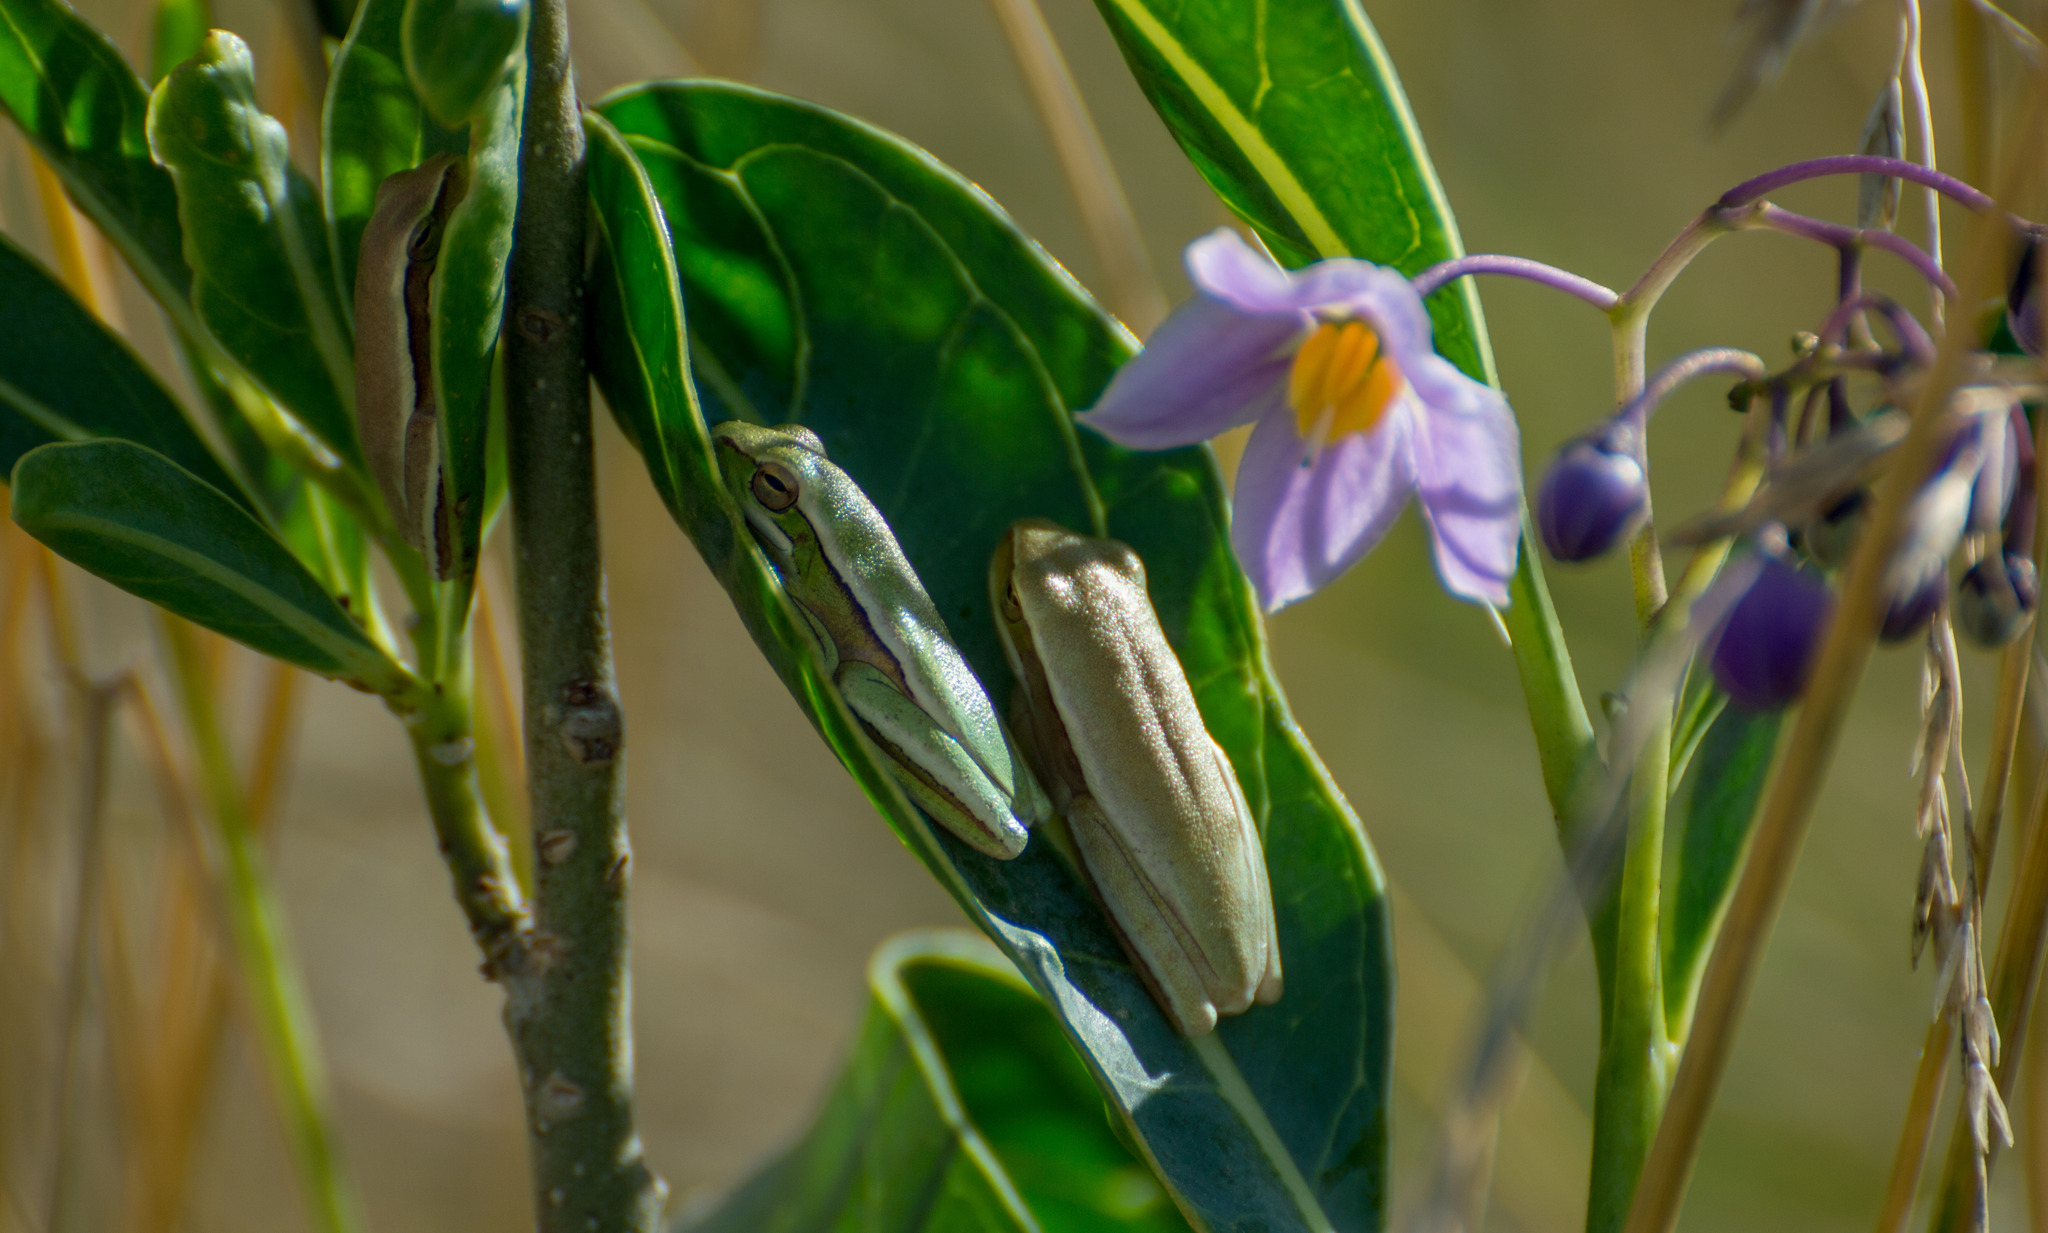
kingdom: Animalia
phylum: Chordata
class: Amphibia
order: Anura
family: Hylidae
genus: Boana
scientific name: Boana pulchella
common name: Montevideo treefrog
